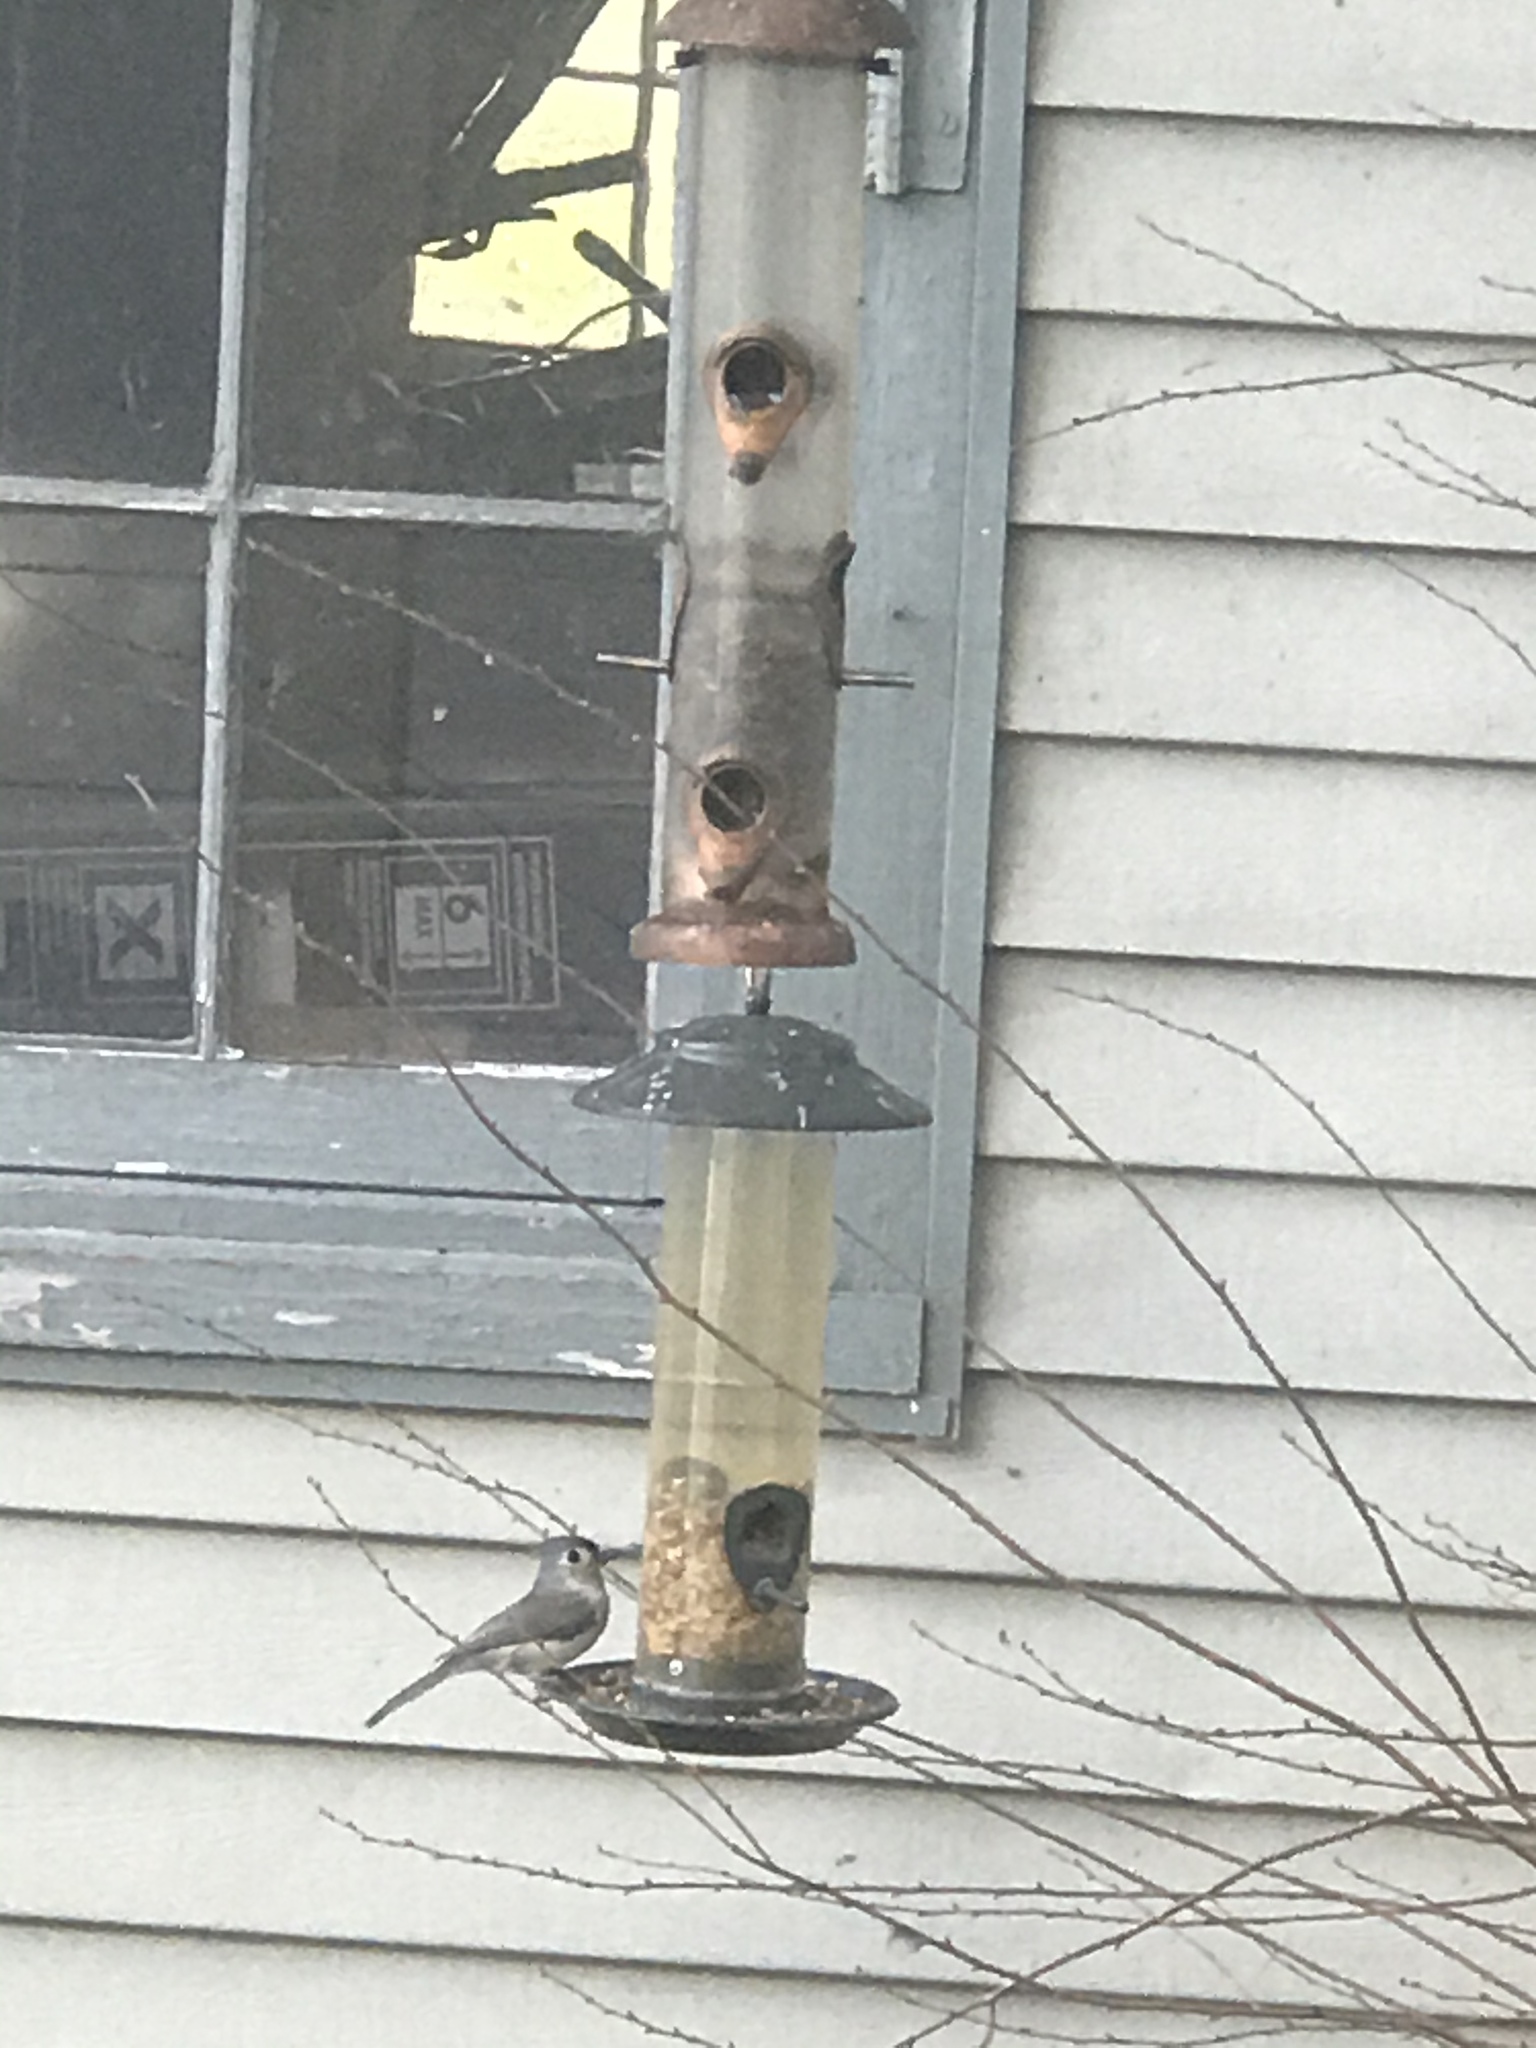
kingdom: Animalia
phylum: Chordata
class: Aves
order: Passeriformes
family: Paridae
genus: Baeolophus
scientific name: Baeolophus bicolor
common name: Tufted titmouse
